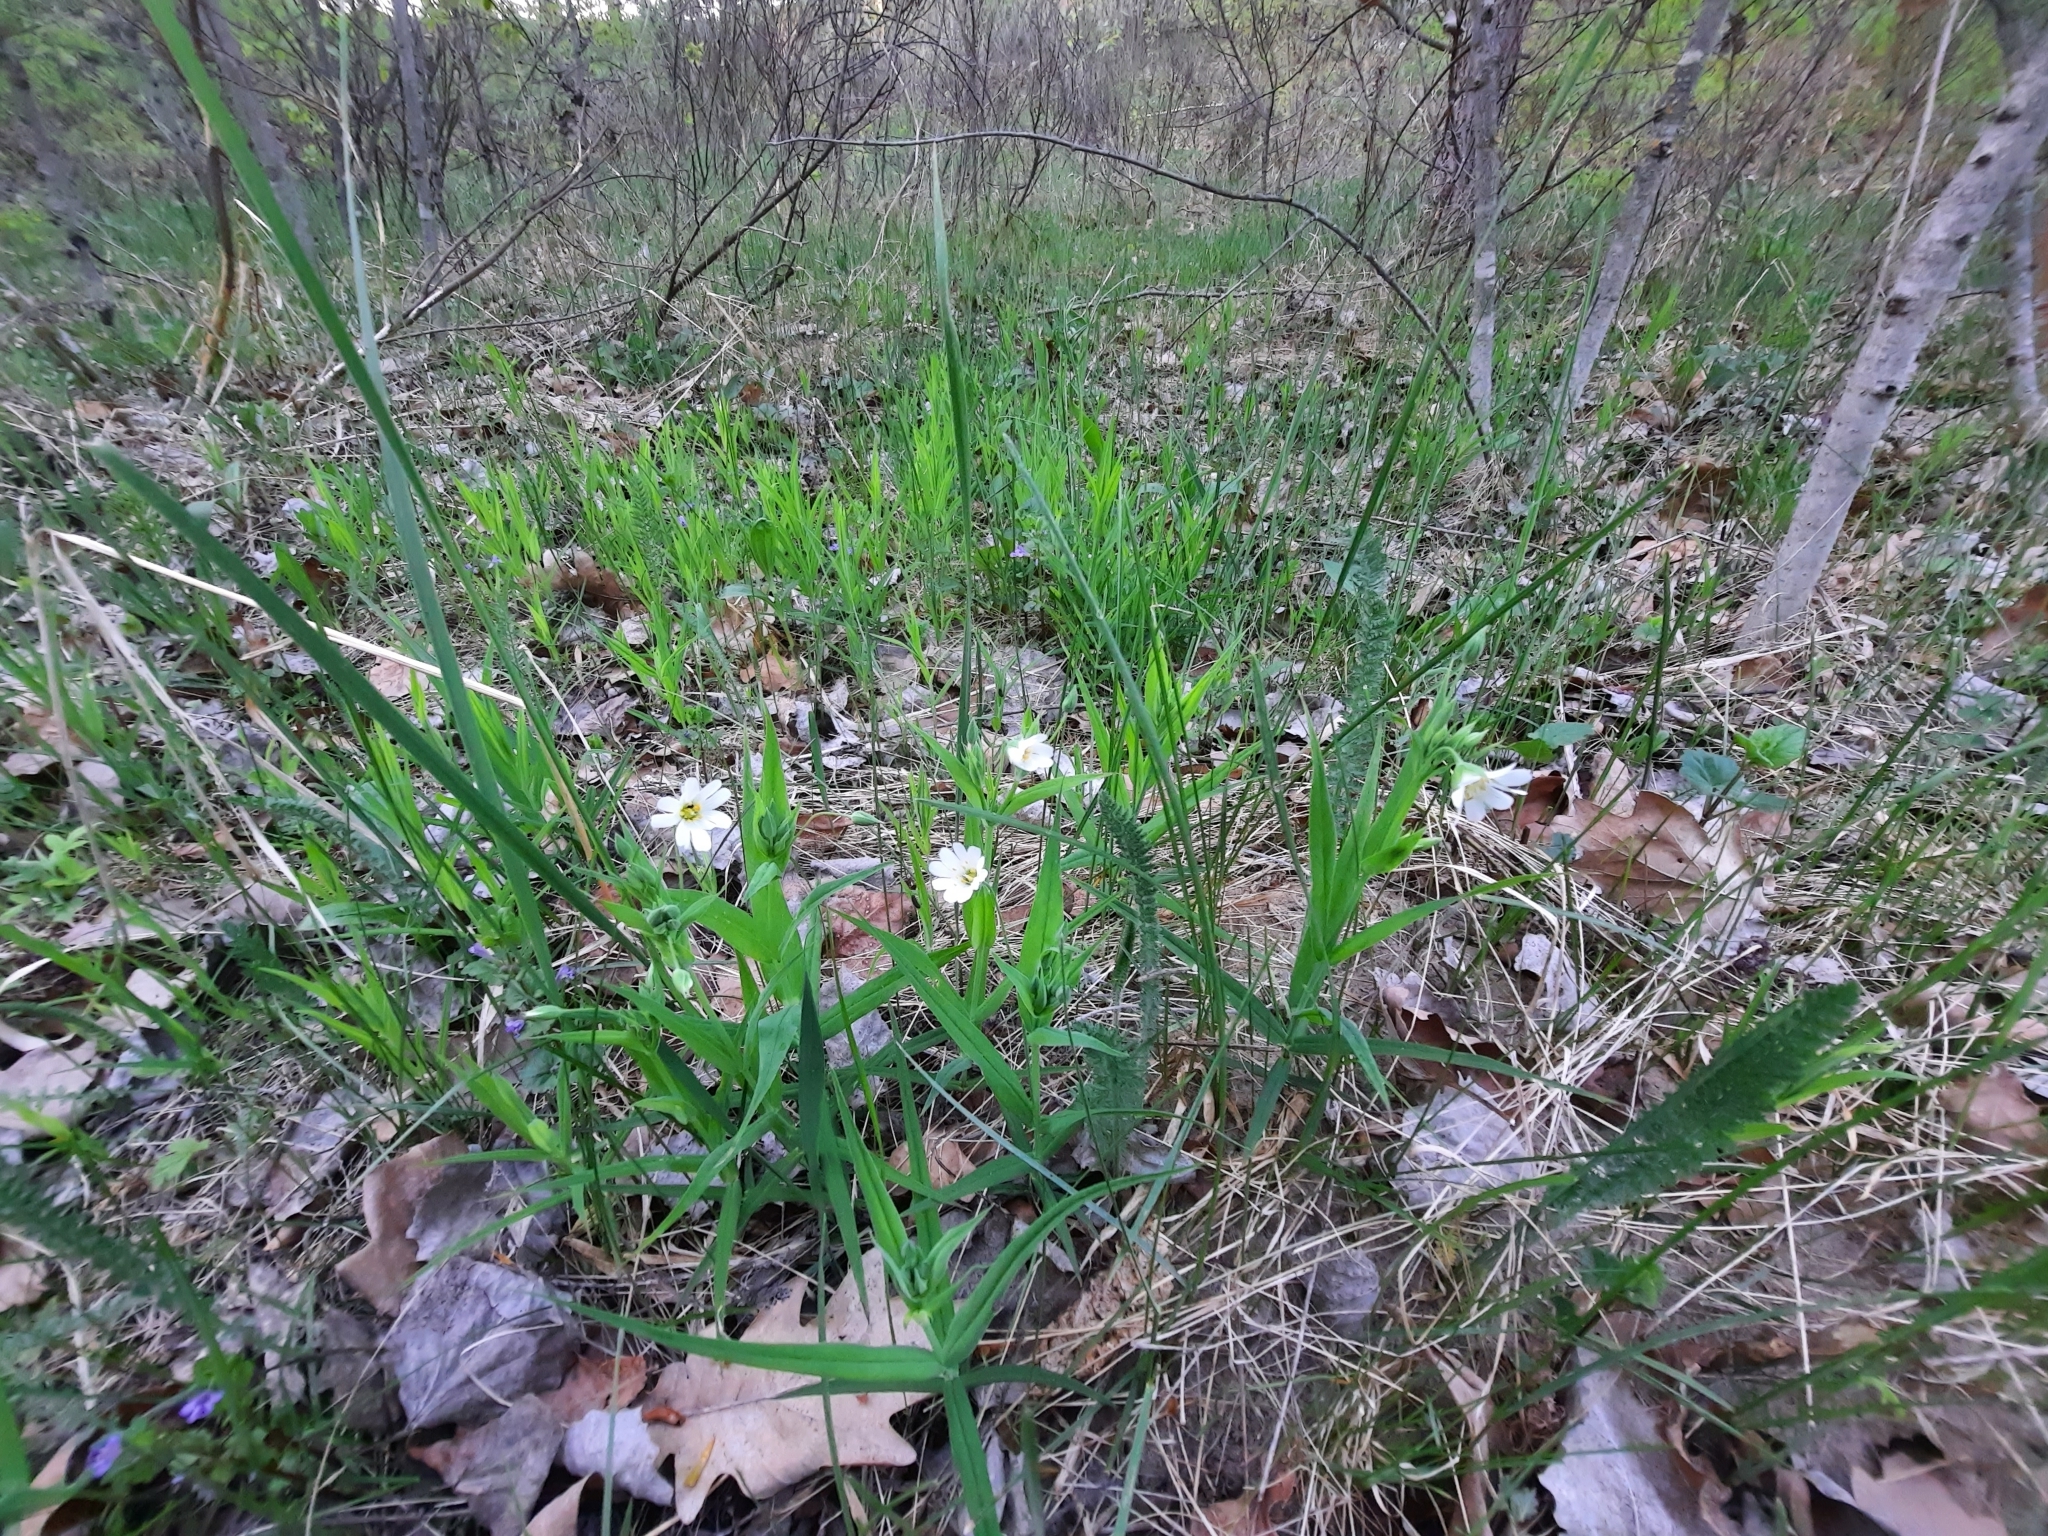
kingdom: Plantae
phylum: Tracheophyta
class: Magnoliopsida
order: Caryophyllales
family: Caryophyllaceae
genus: Rabelera
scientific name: Rabelera holostea
